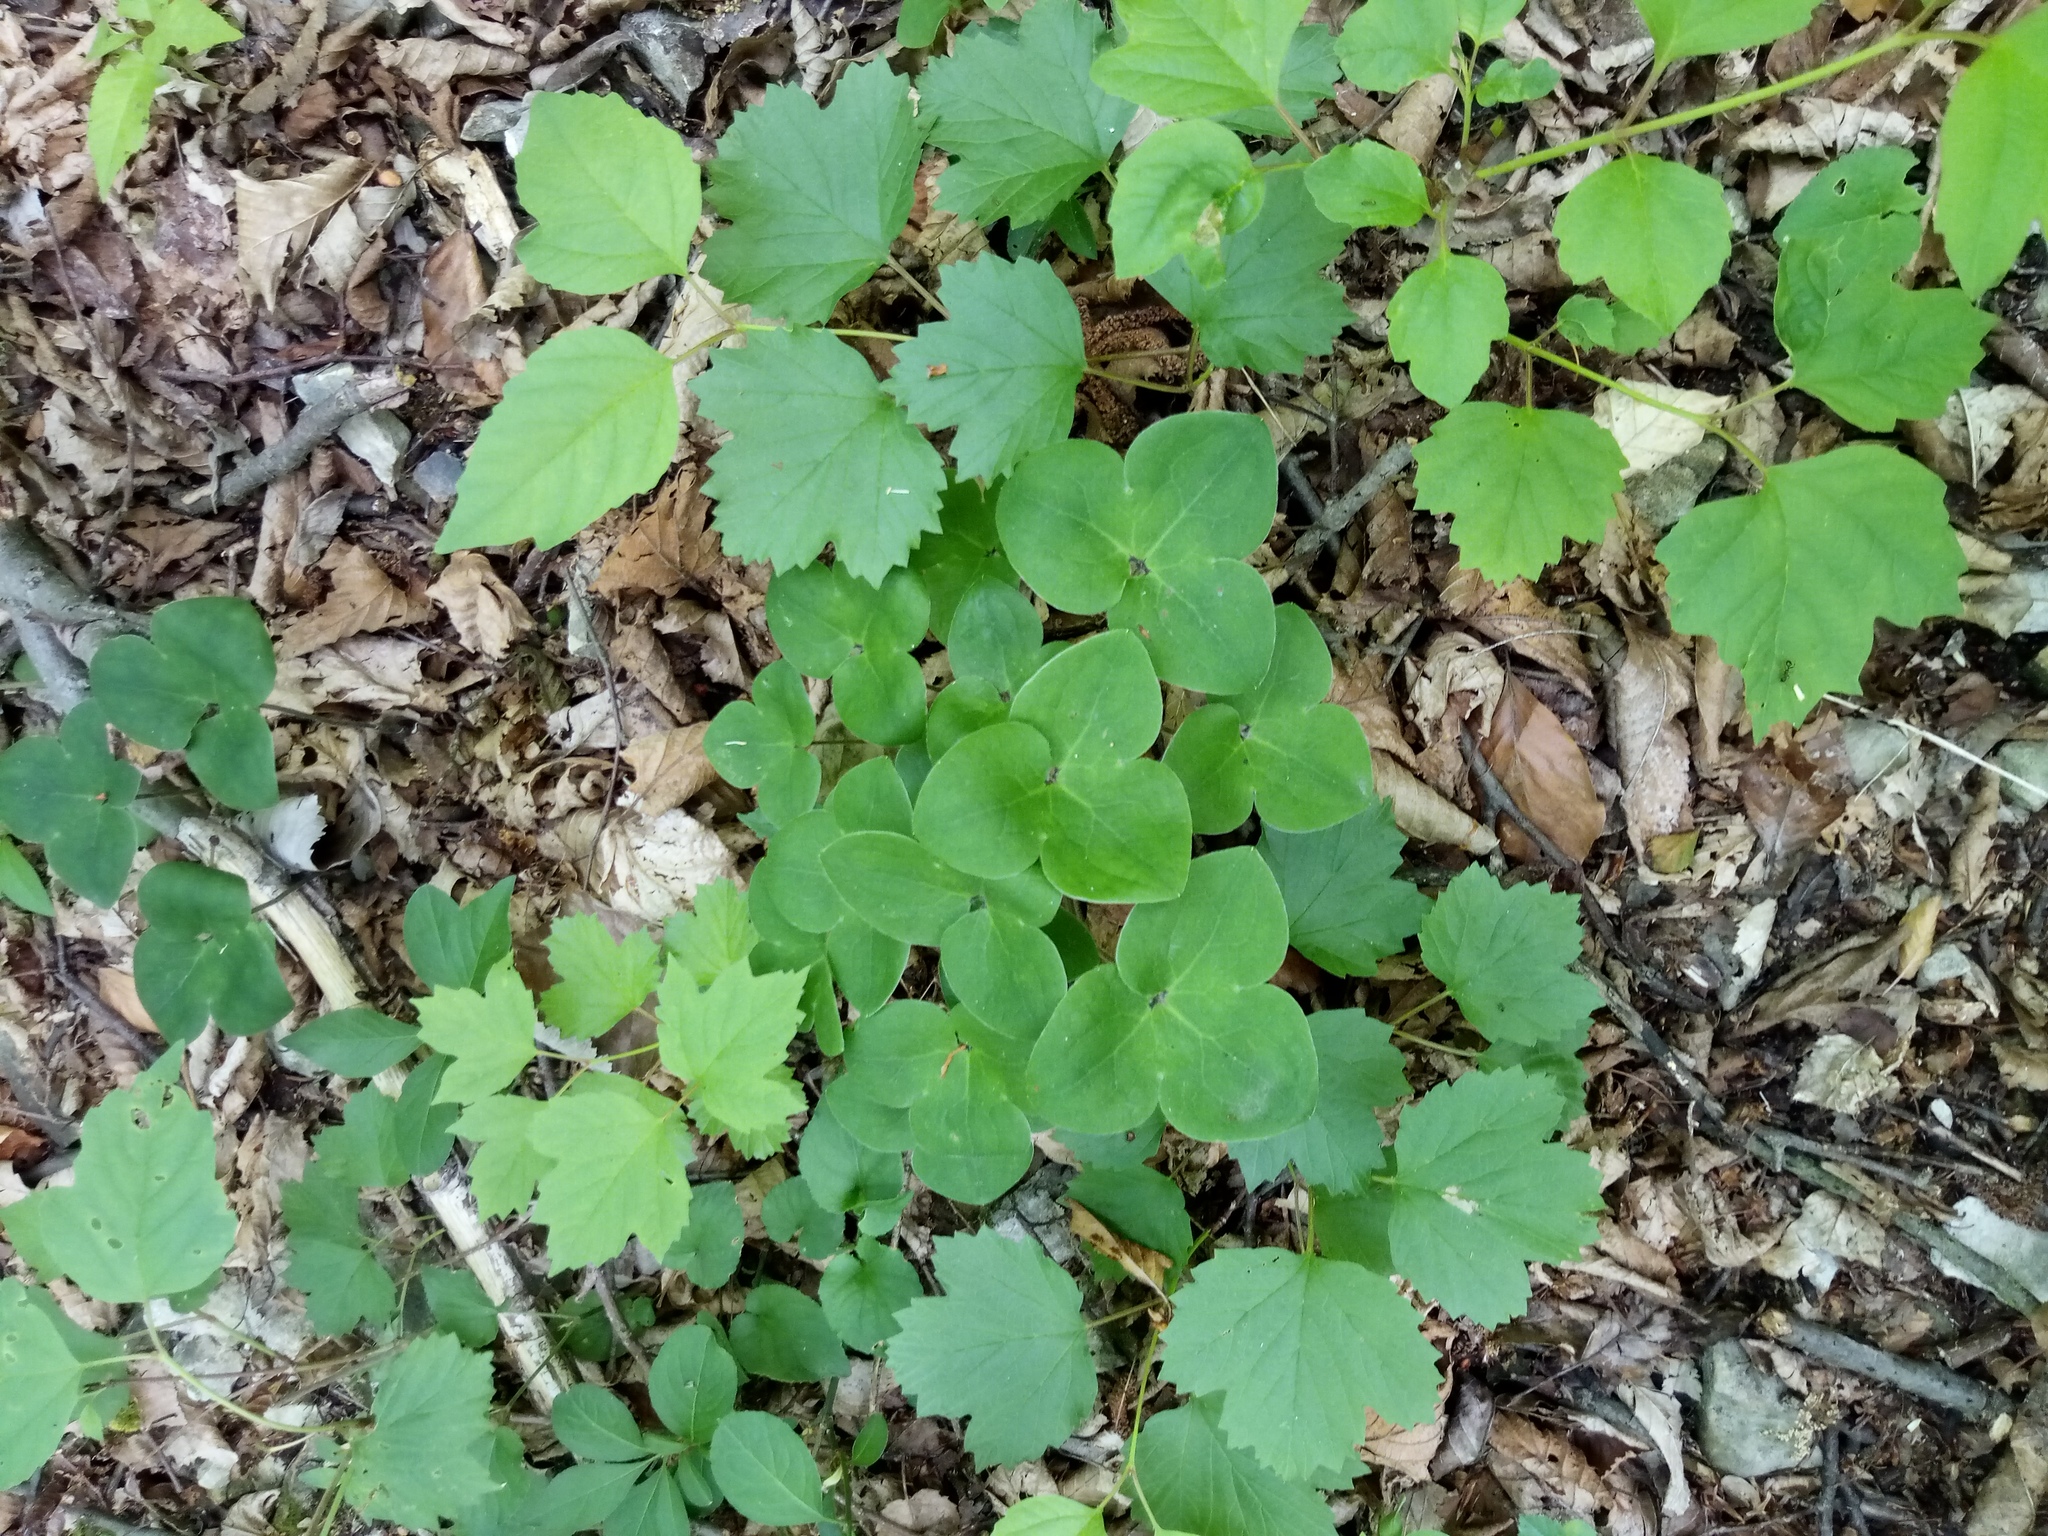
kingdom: Plantae
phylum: Tracheophyta
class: Magnoliopsida
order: Ranunculales
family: Ranunculaceae
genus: Hepatica
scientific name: Hepatica nobilis
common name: Liverleaf
